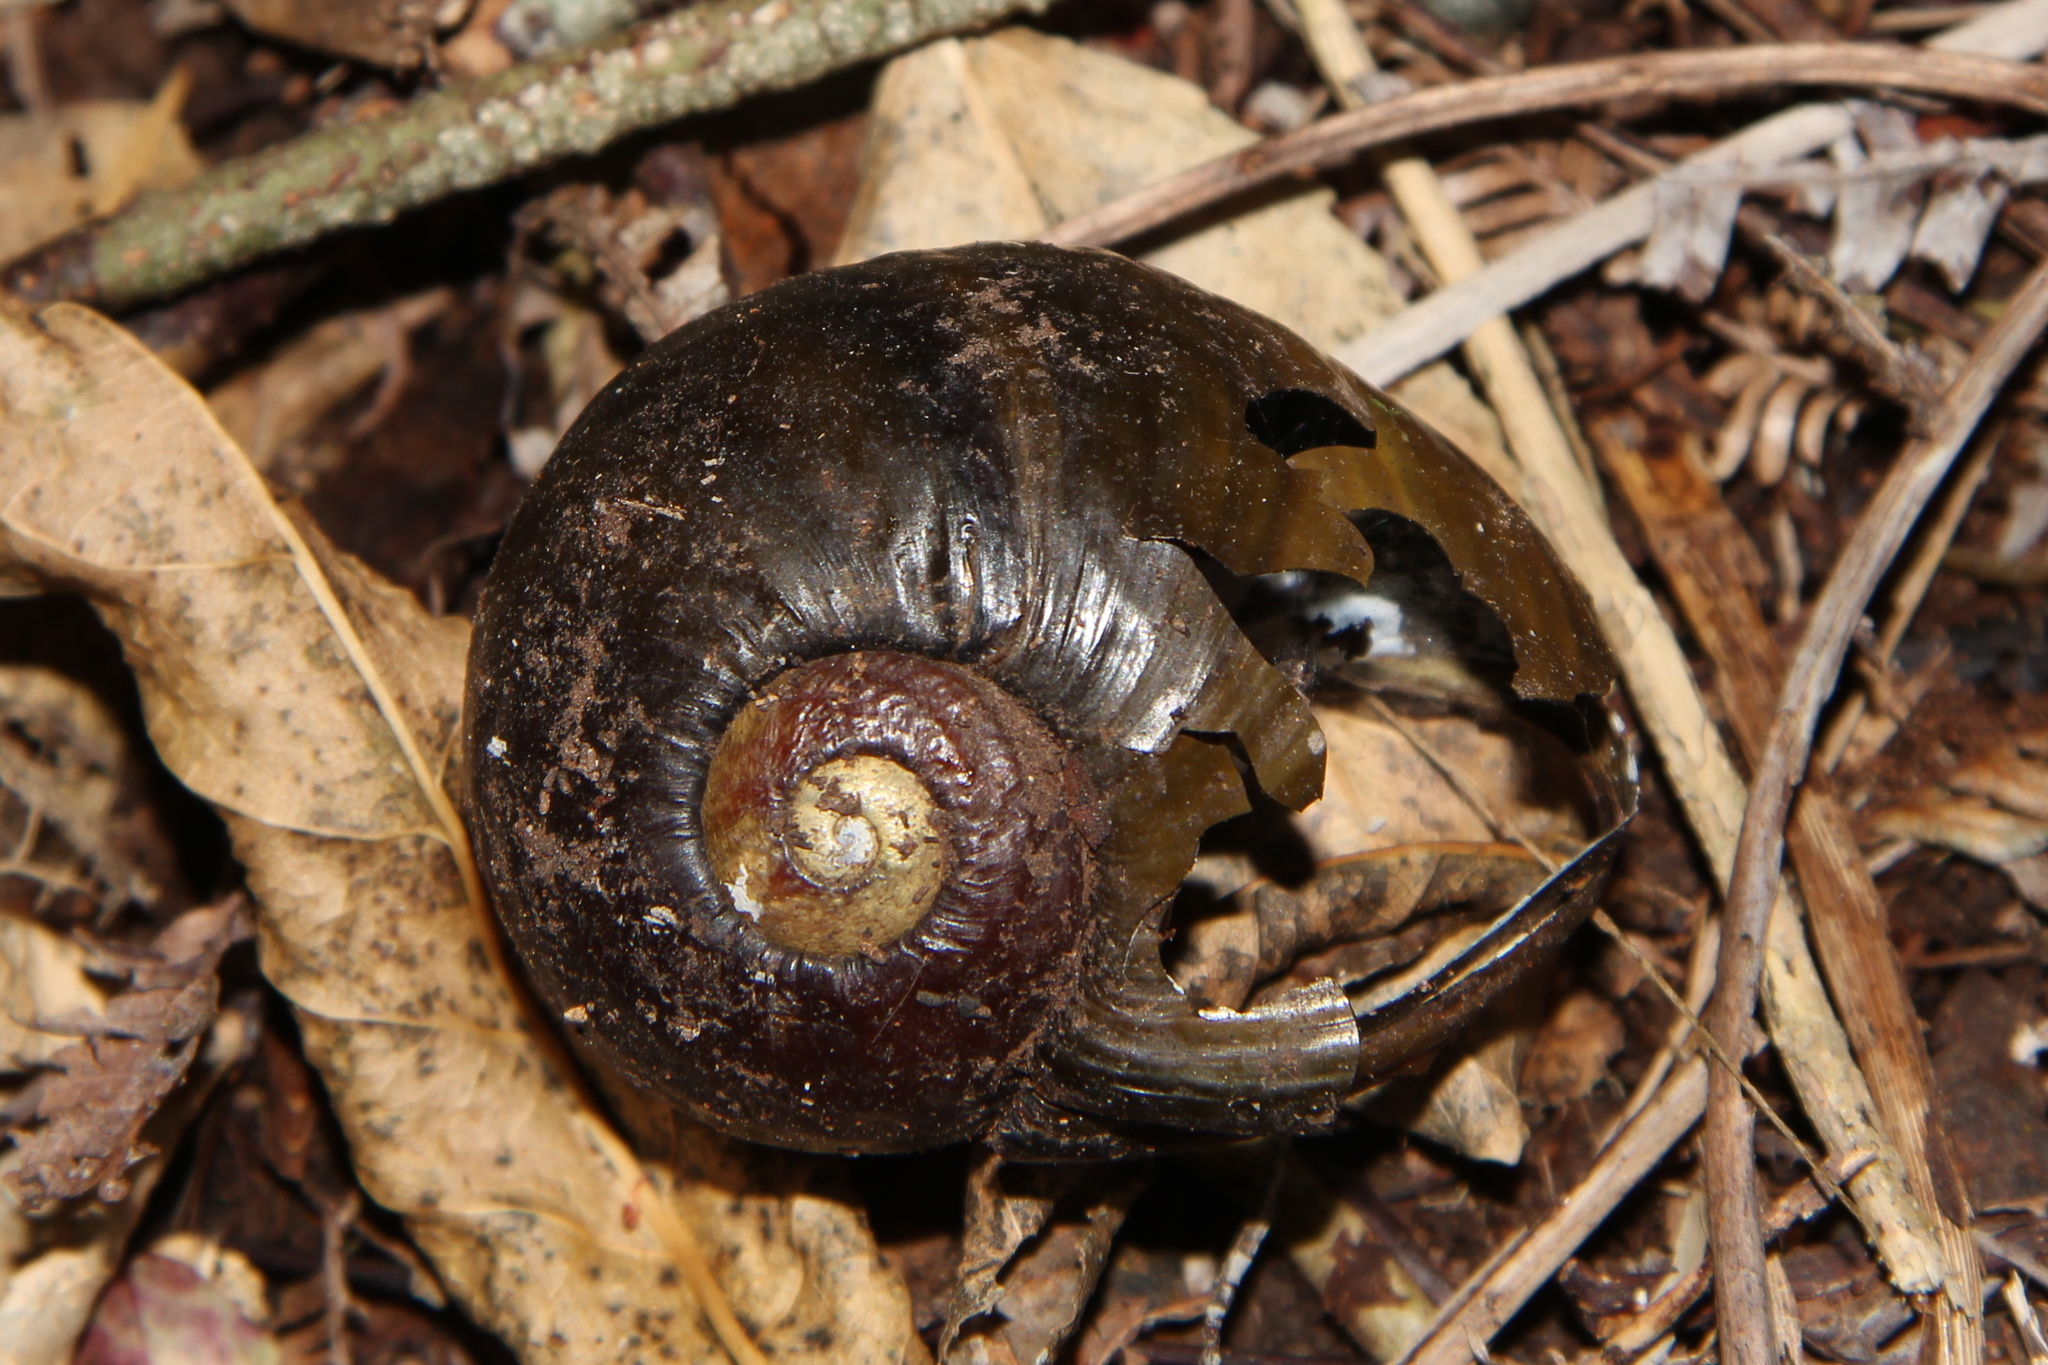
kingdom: Animalia
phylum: Mollusca
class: Gastropoda
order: Stylommatophora
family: Rhytididae
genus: Paryphanta
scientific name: Paryphanta busbyi
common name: Kauri snail
